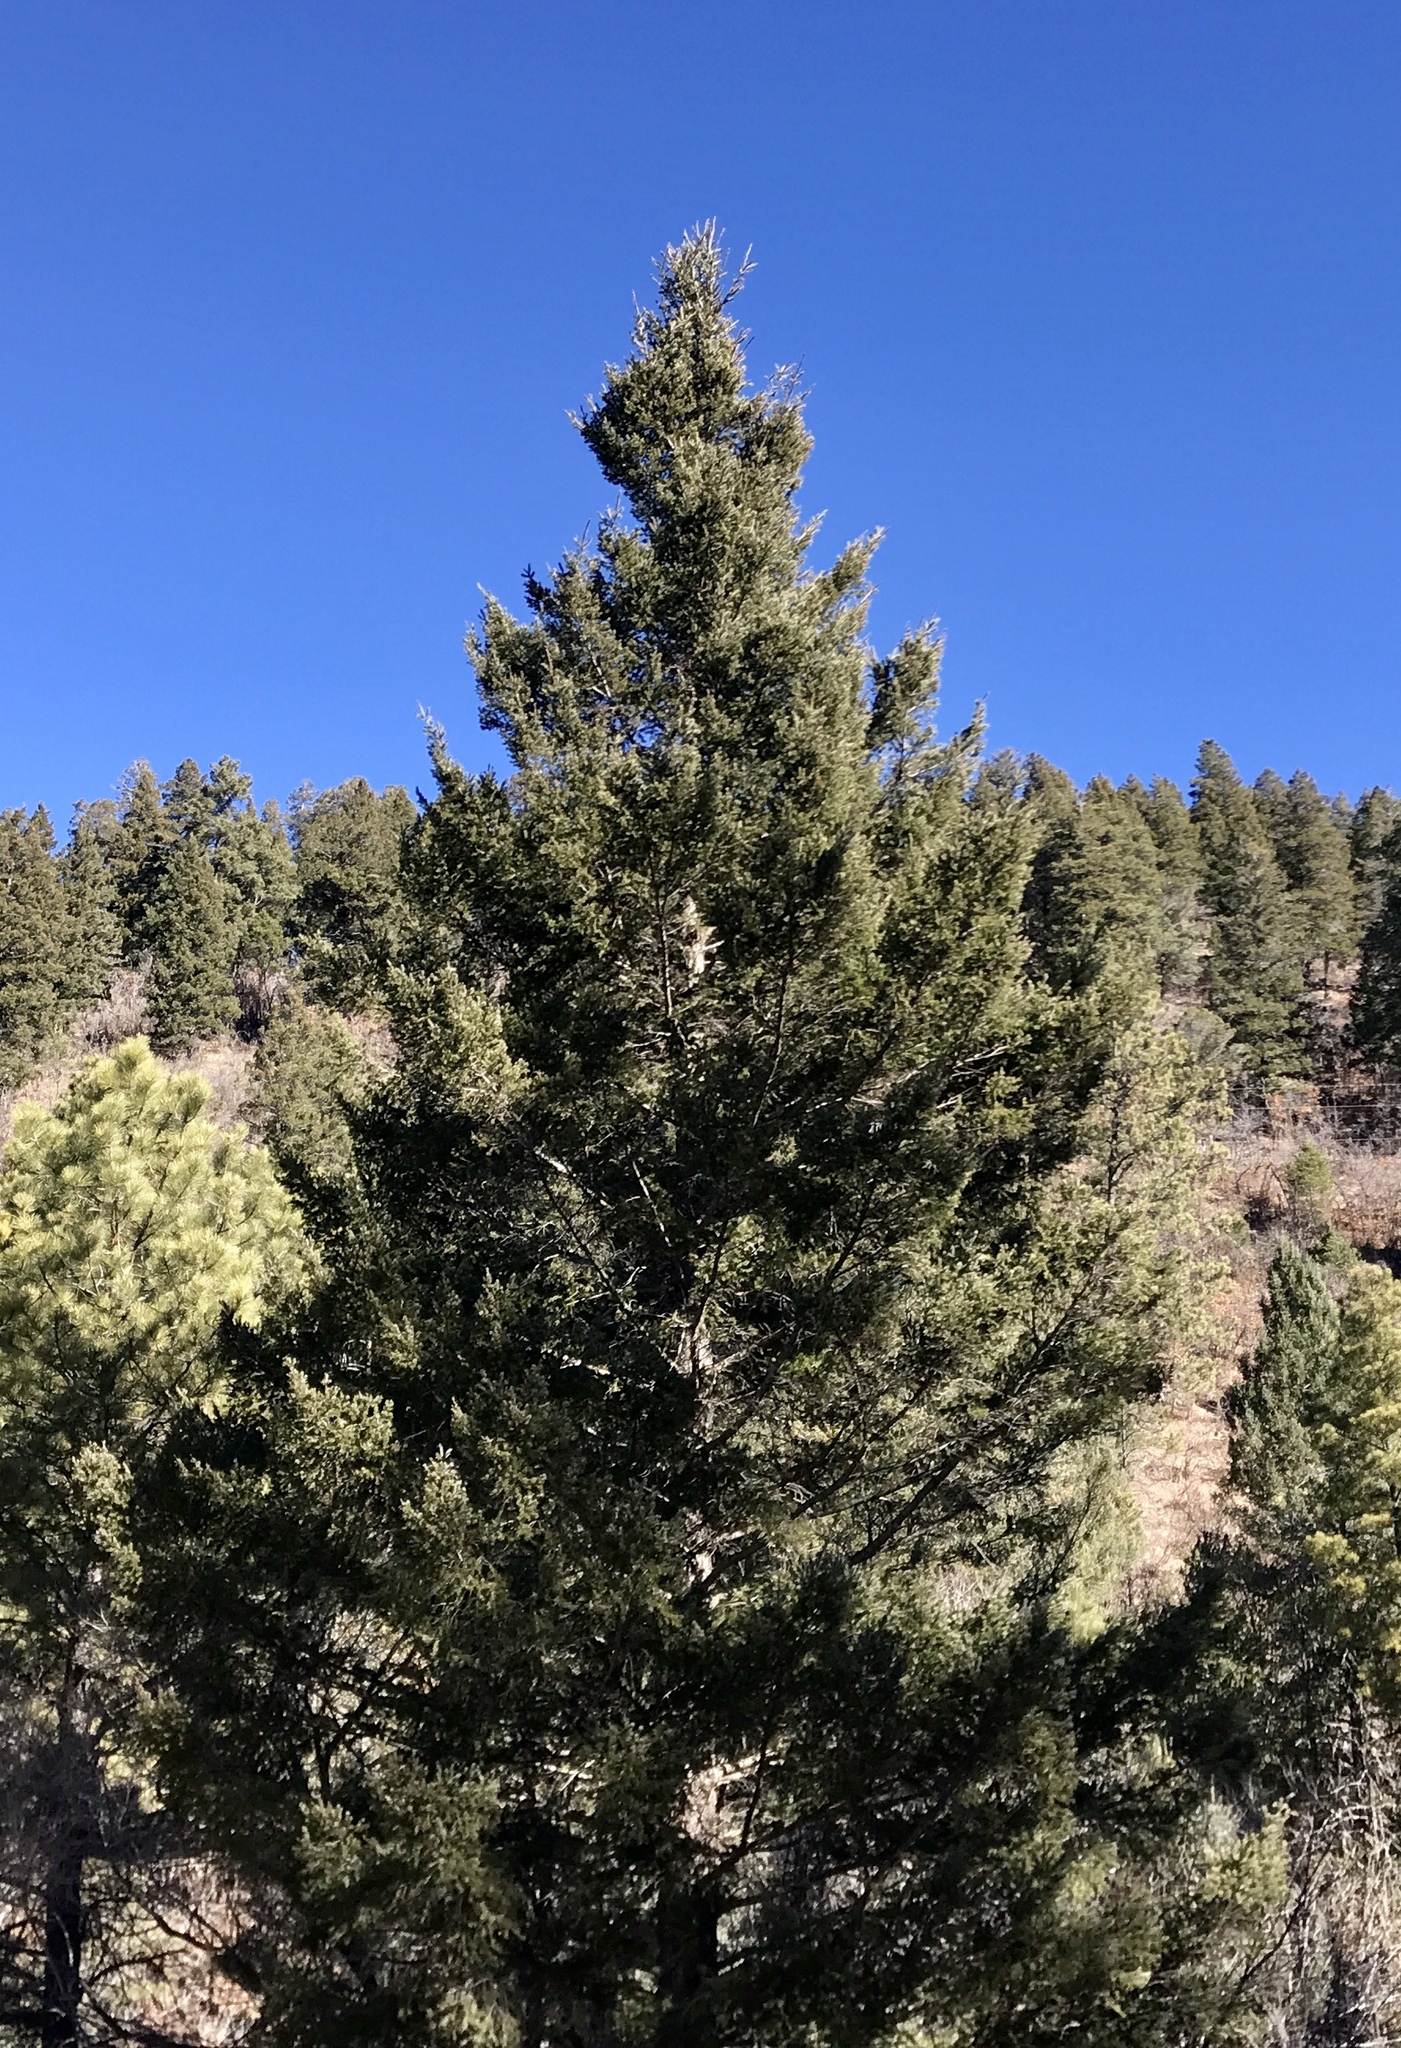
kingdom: Plantae
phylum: Tracheophyta
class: Pinopsida
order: Pinales
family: Pinaceae
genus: Pseudotsuga
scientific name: Pseudotsuga menziesii
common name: Douglas fir
